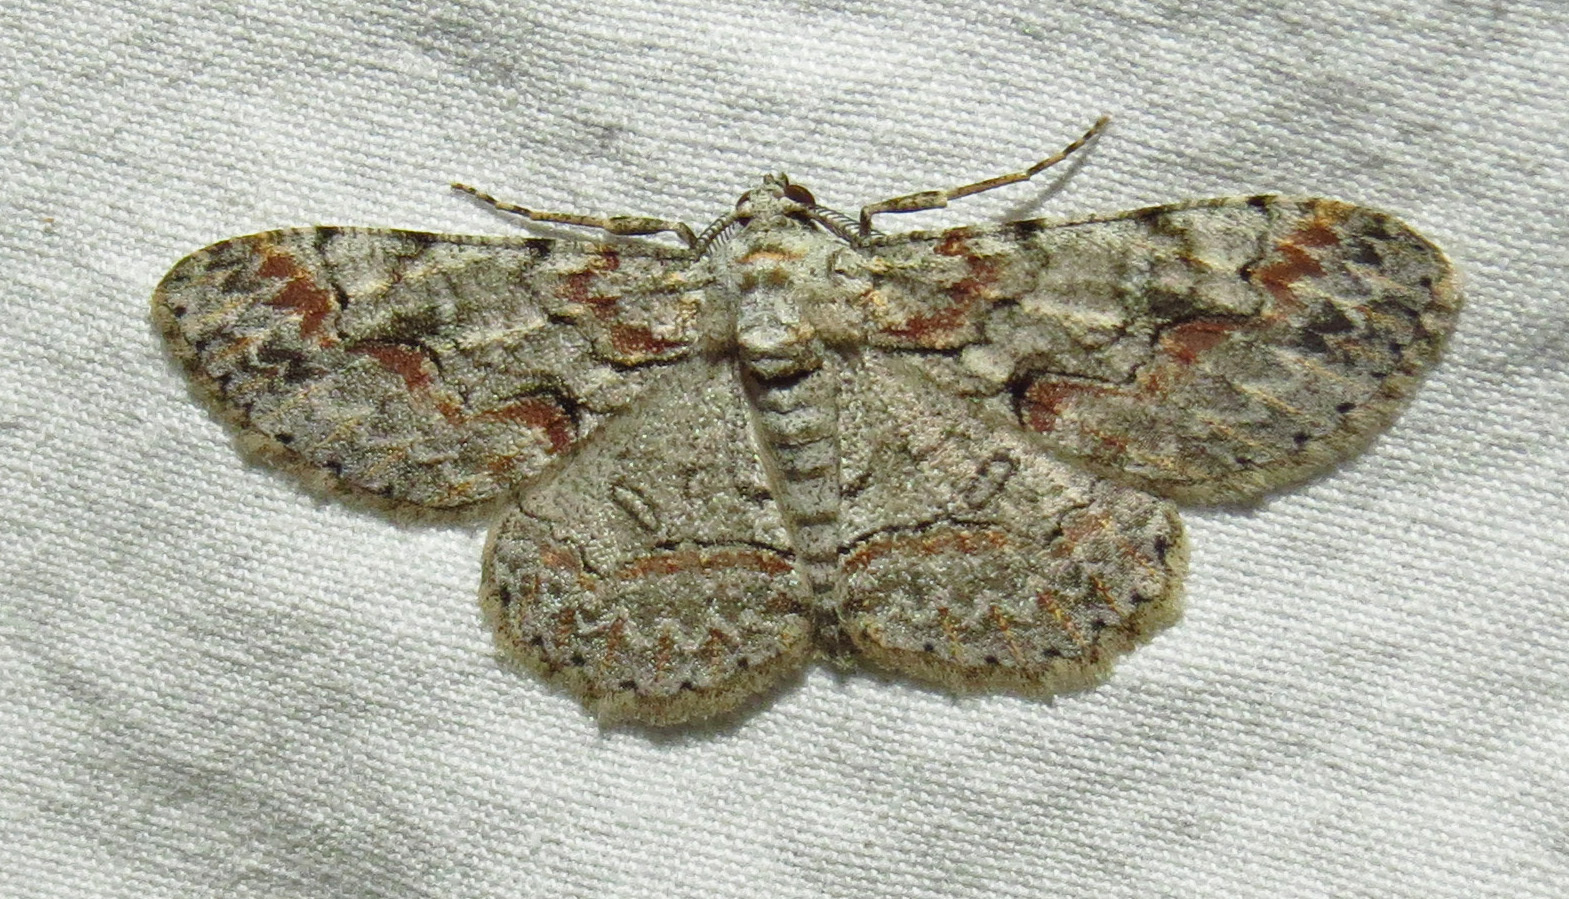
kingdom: Animalia
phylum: Arthropoda
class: Insecta
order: Lepidoptera
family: Geometridae
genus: Iridopsis
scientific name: Iridopsis defectaria
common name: Brown-shaded gray
